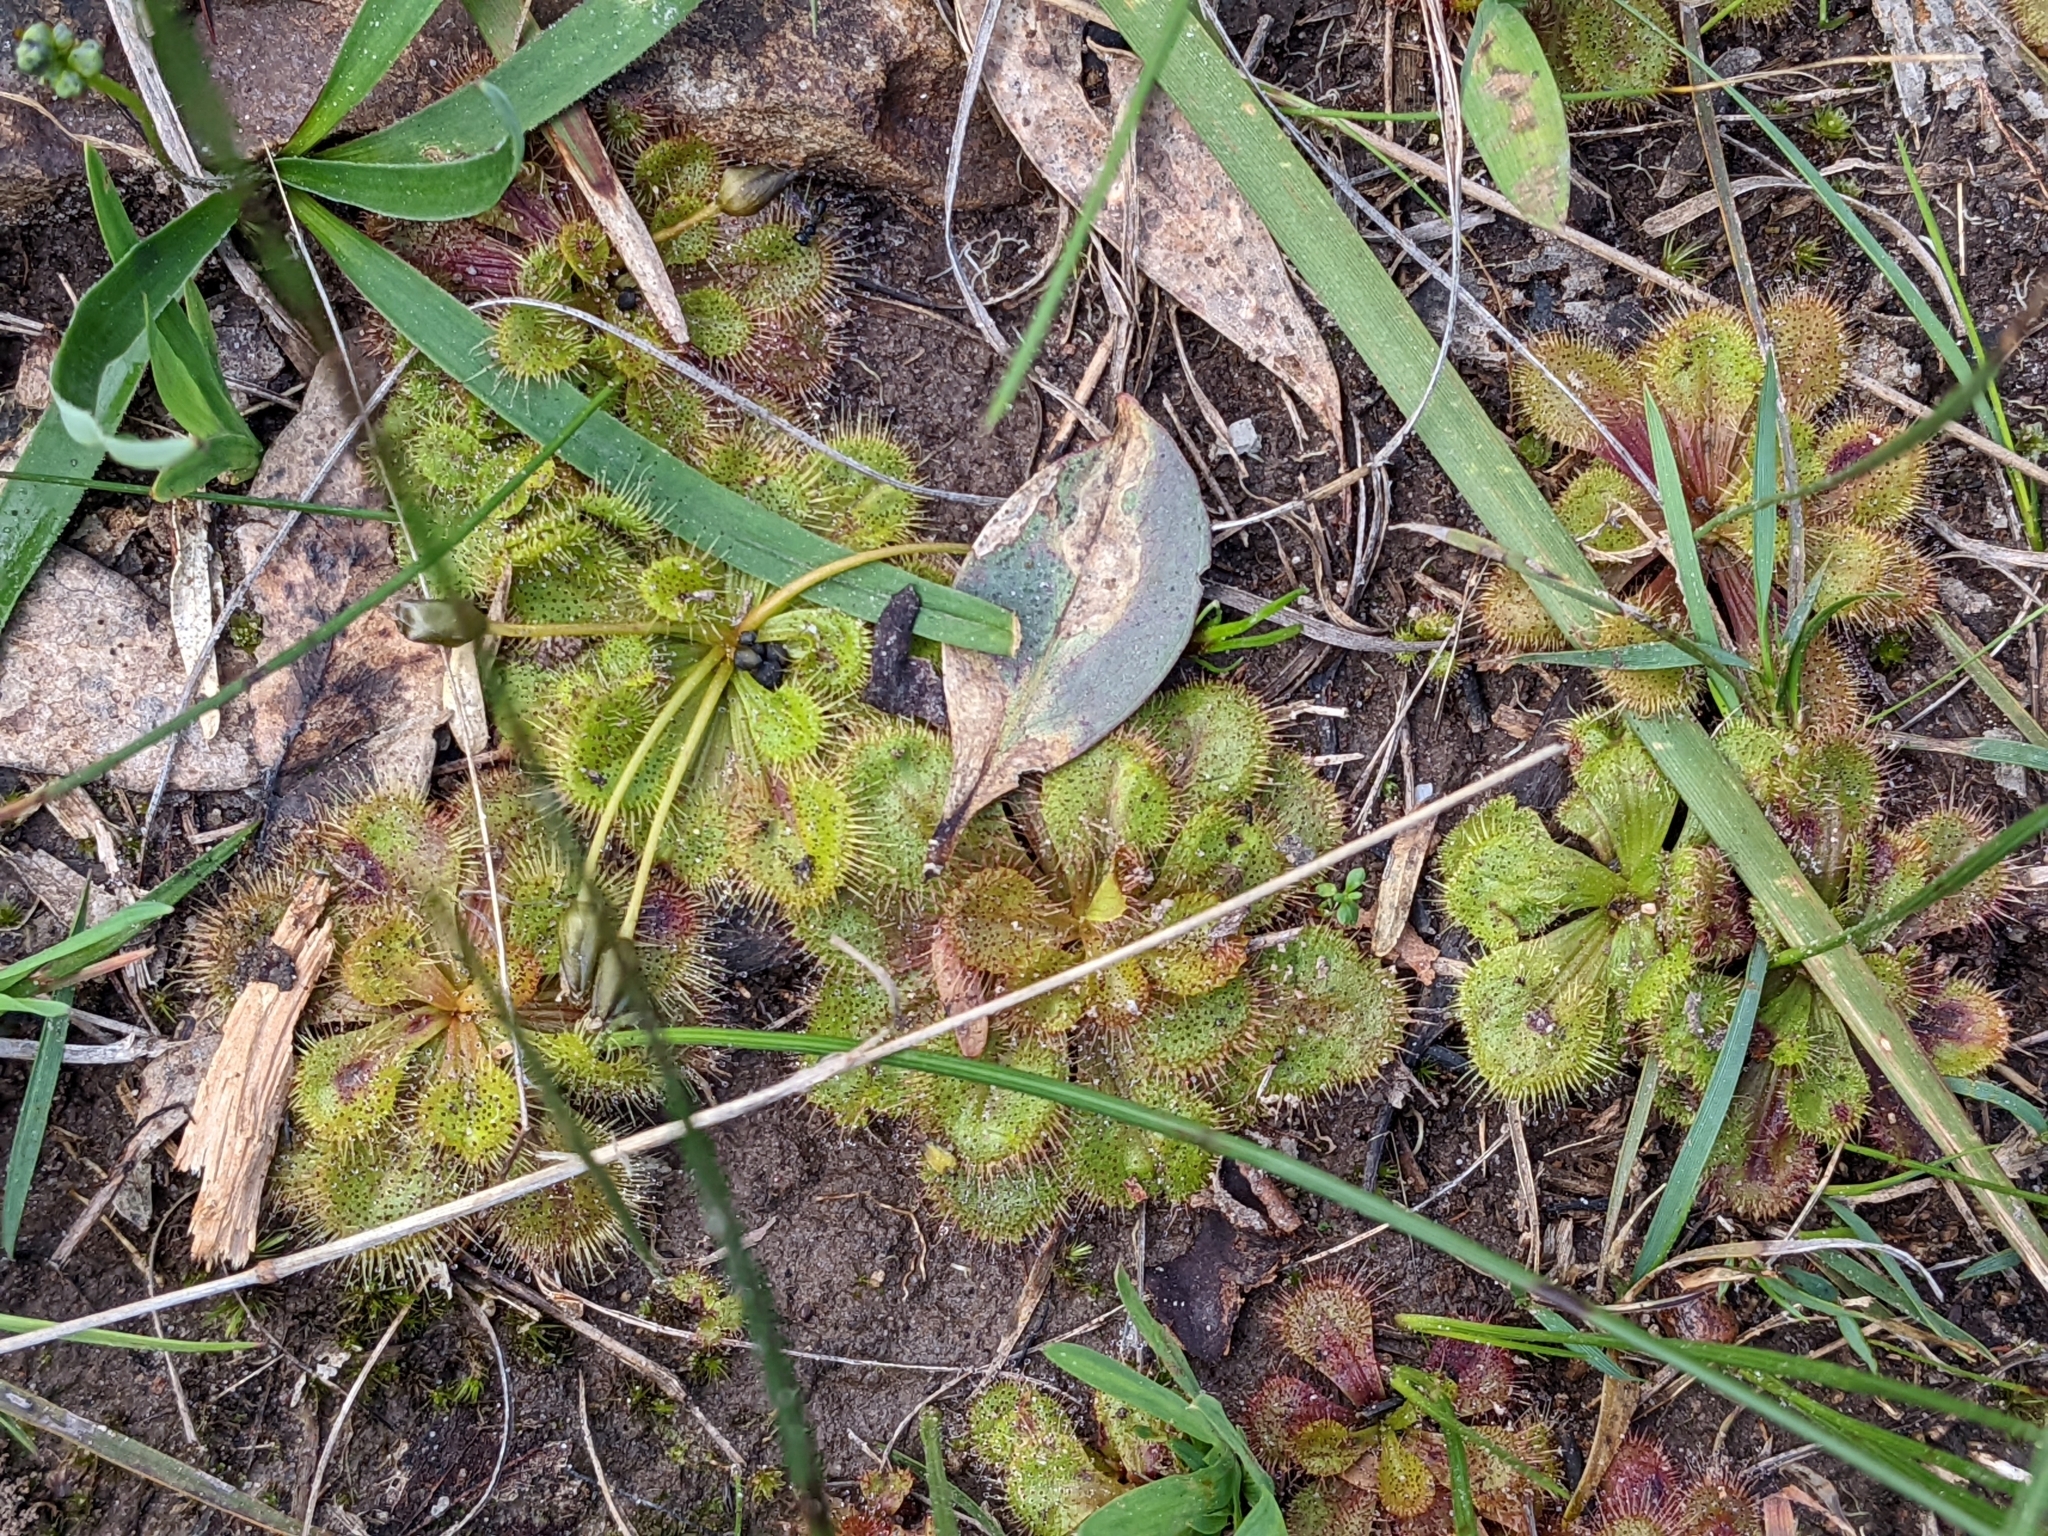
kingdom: Plantae
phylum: Tracheophyta
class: Magnoliopsida
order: Caryophyllales
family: Droseraceae
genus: Drosera
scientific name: Drosera whittakeri
